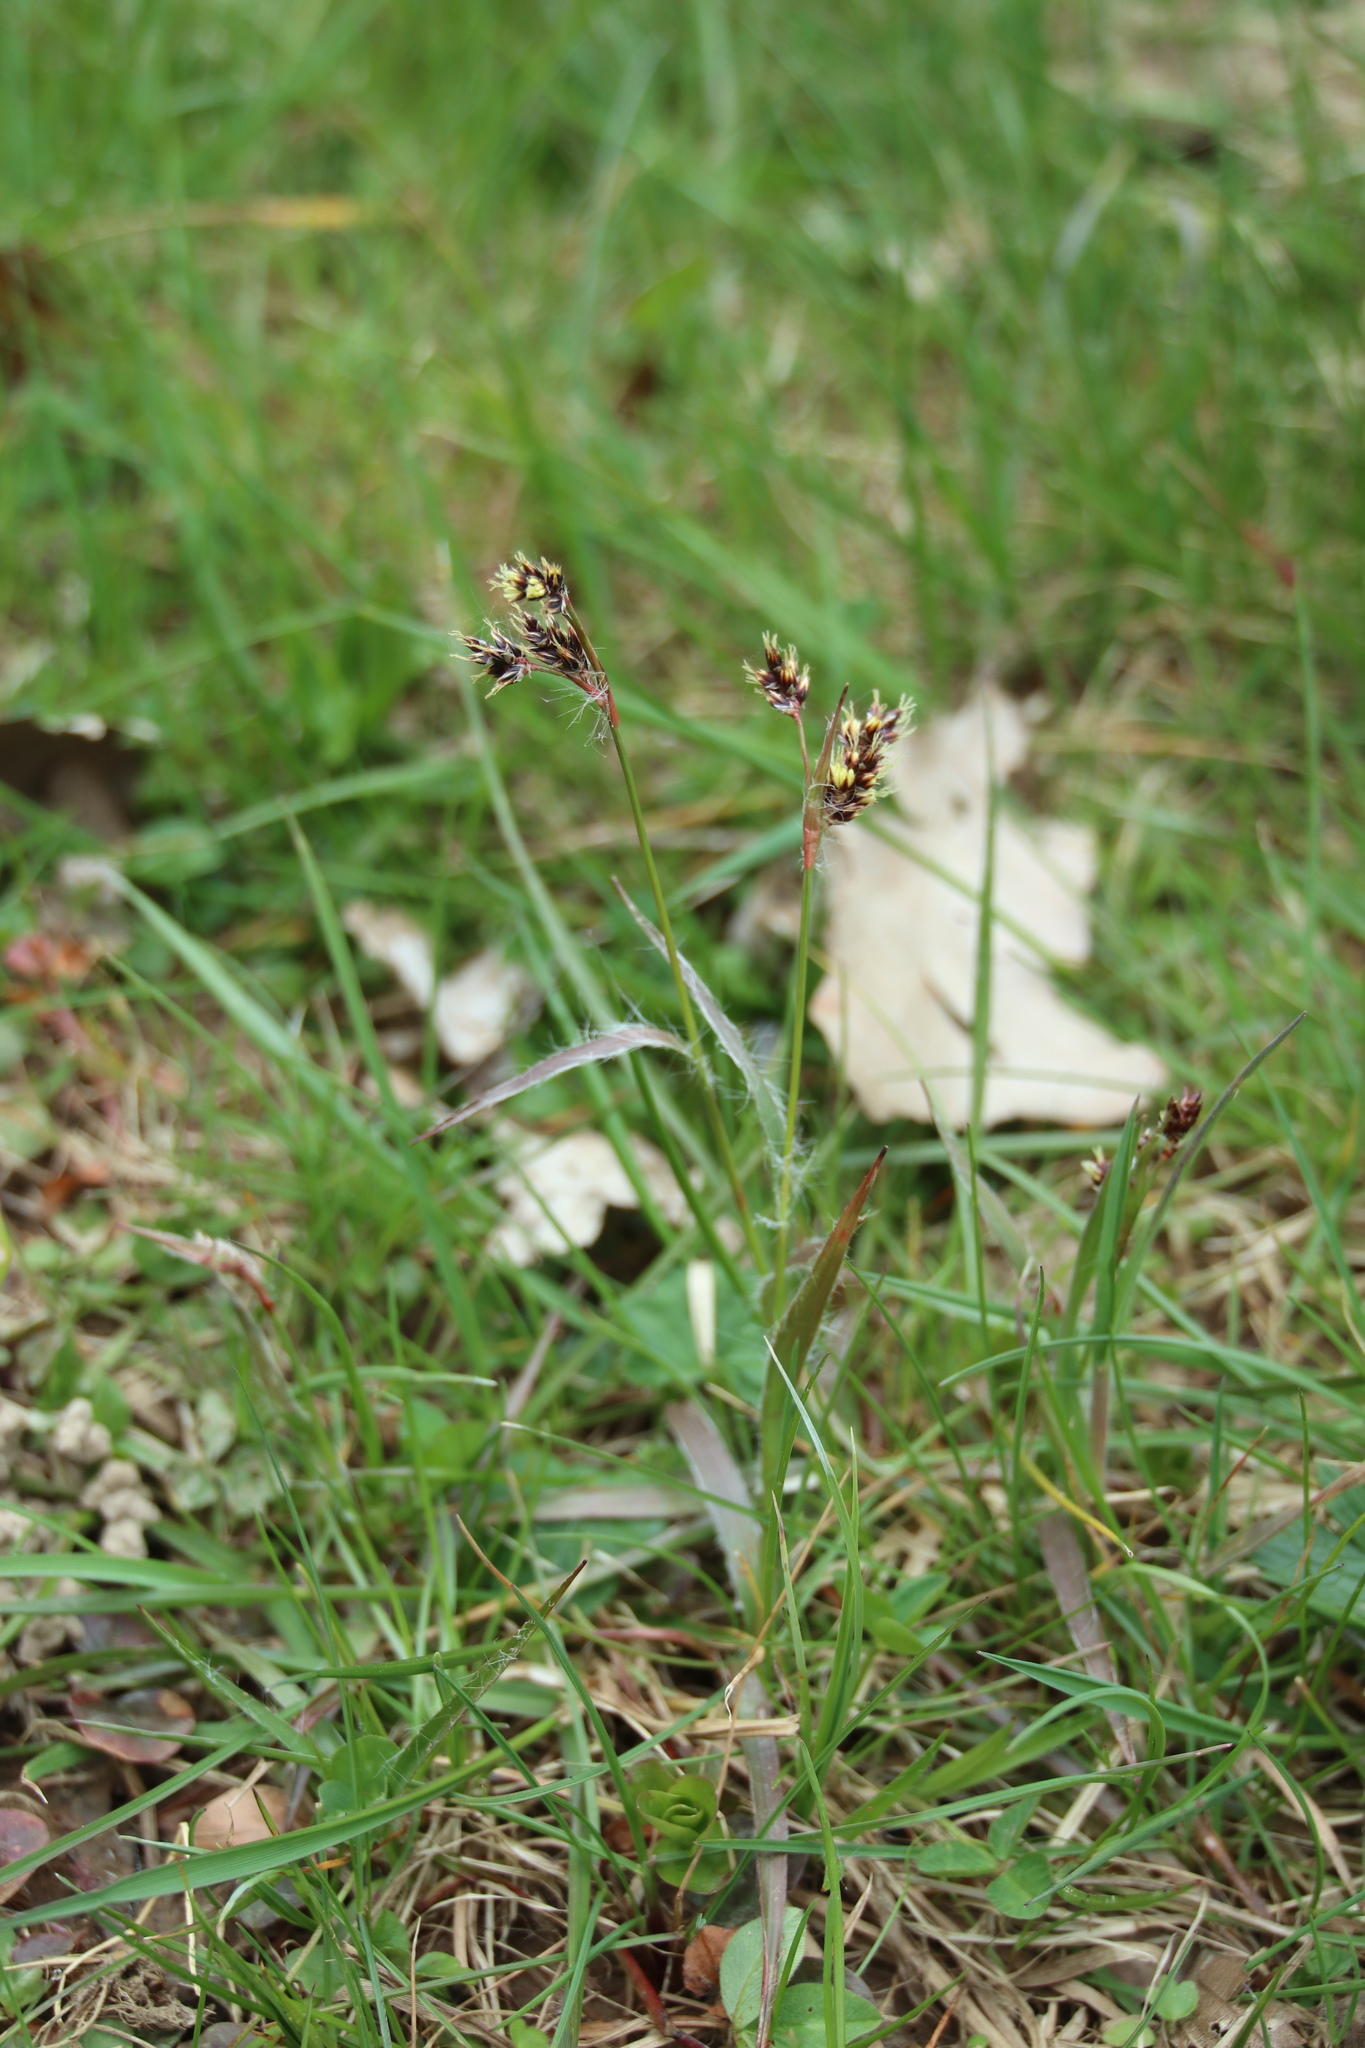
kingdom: Plantae
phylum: Tracheophyta
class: Liliopsida
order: Poales
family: Juncaceae
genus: Luzula
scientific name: Luzula campestris
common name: Field wood-rush
